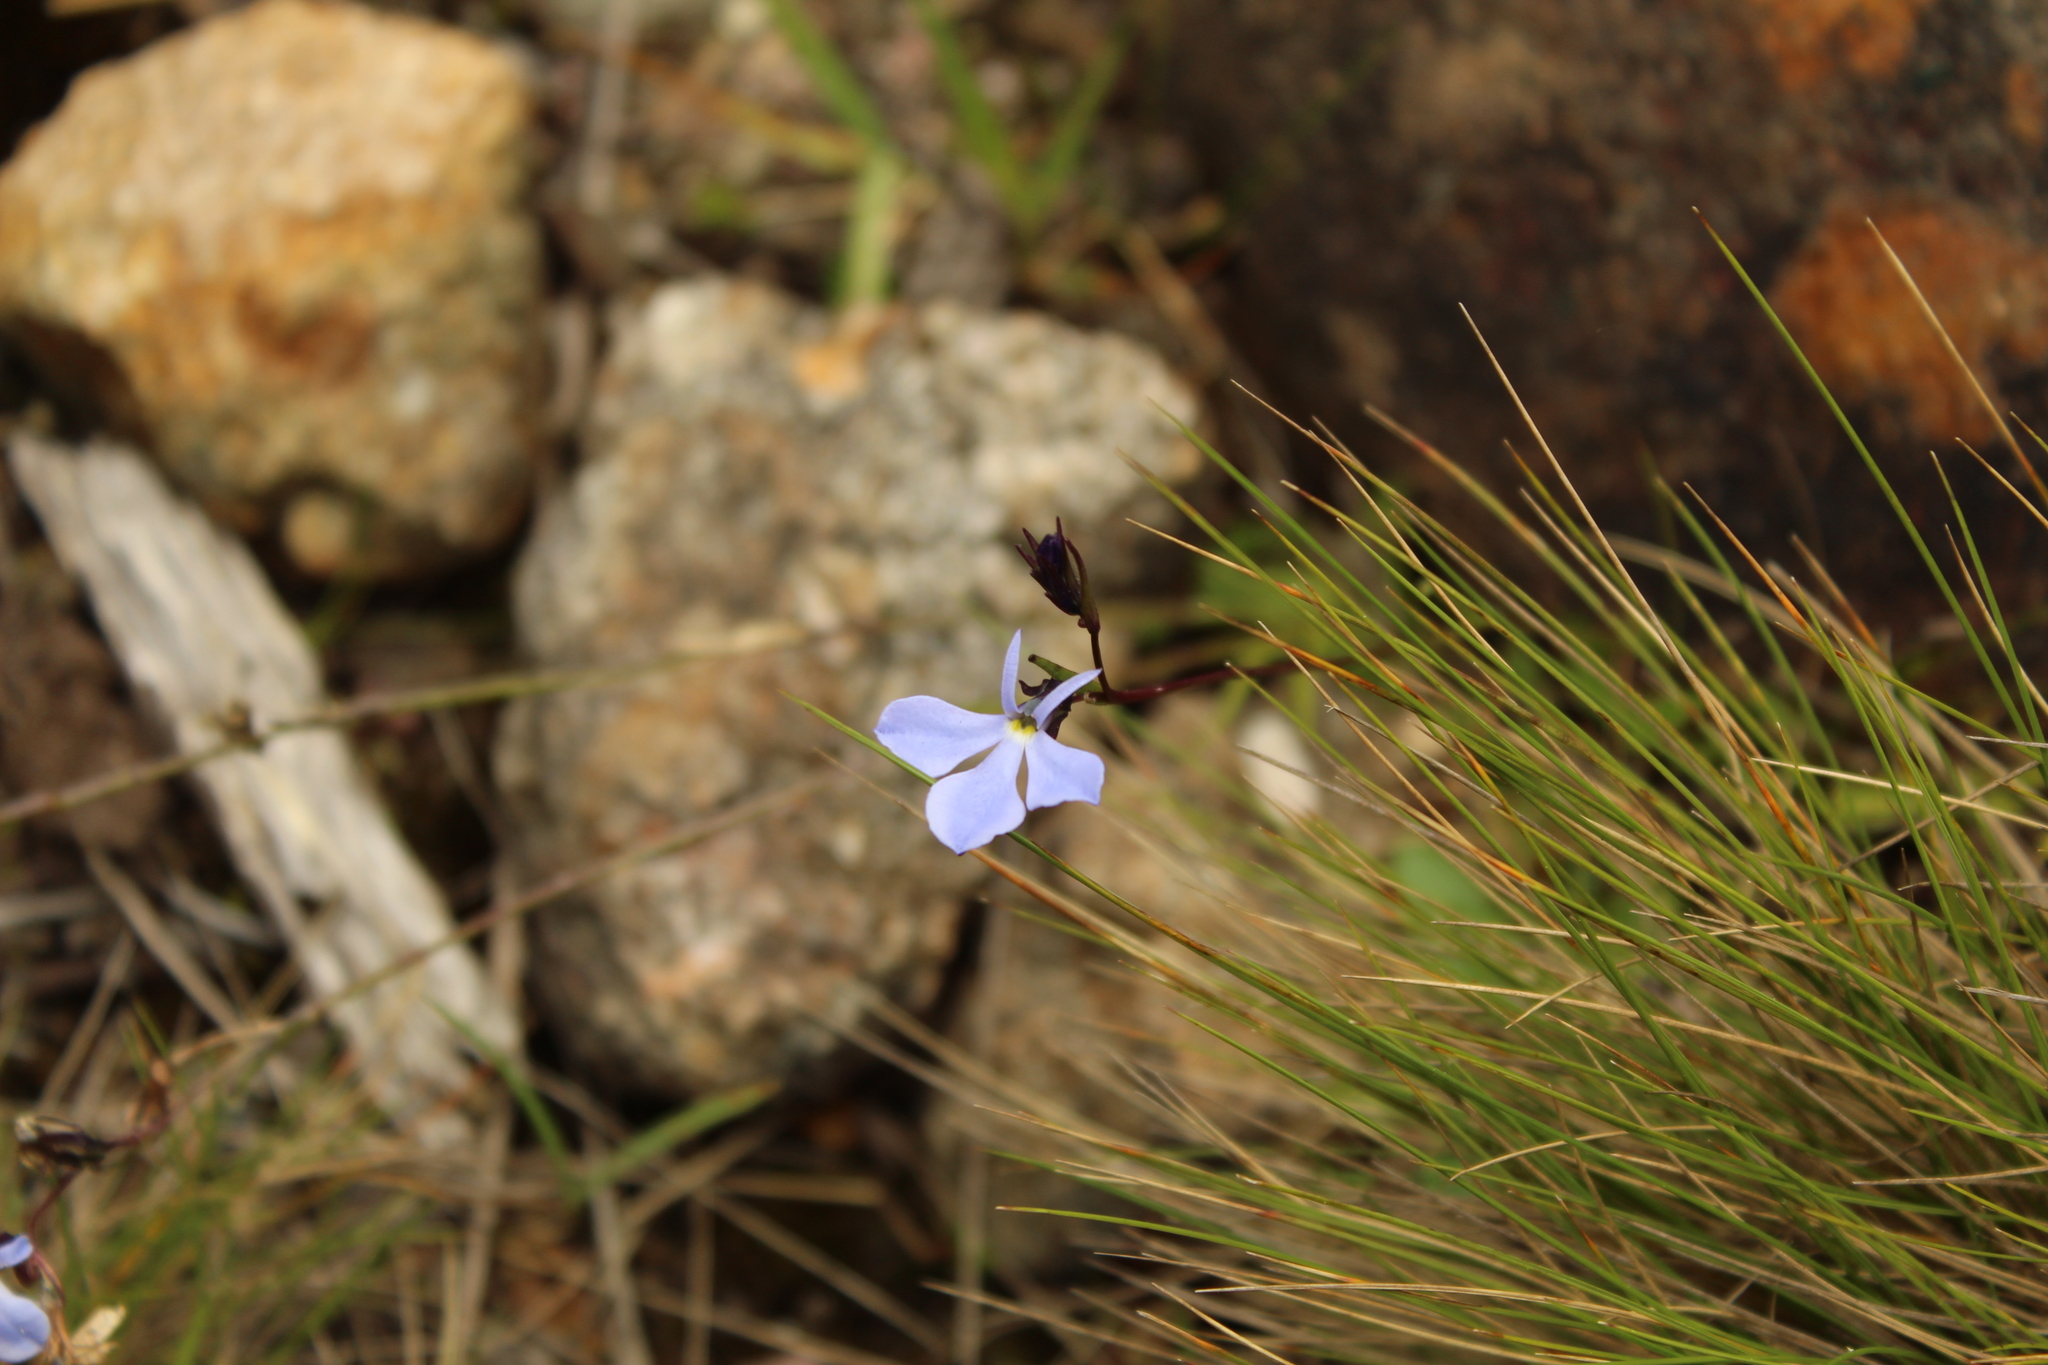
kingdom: Plantae
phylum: Tracheophyta
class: Magnoliopsida
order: Asterales
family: Campanulaceae
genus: Lobelia
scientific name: Lobelia tenera
